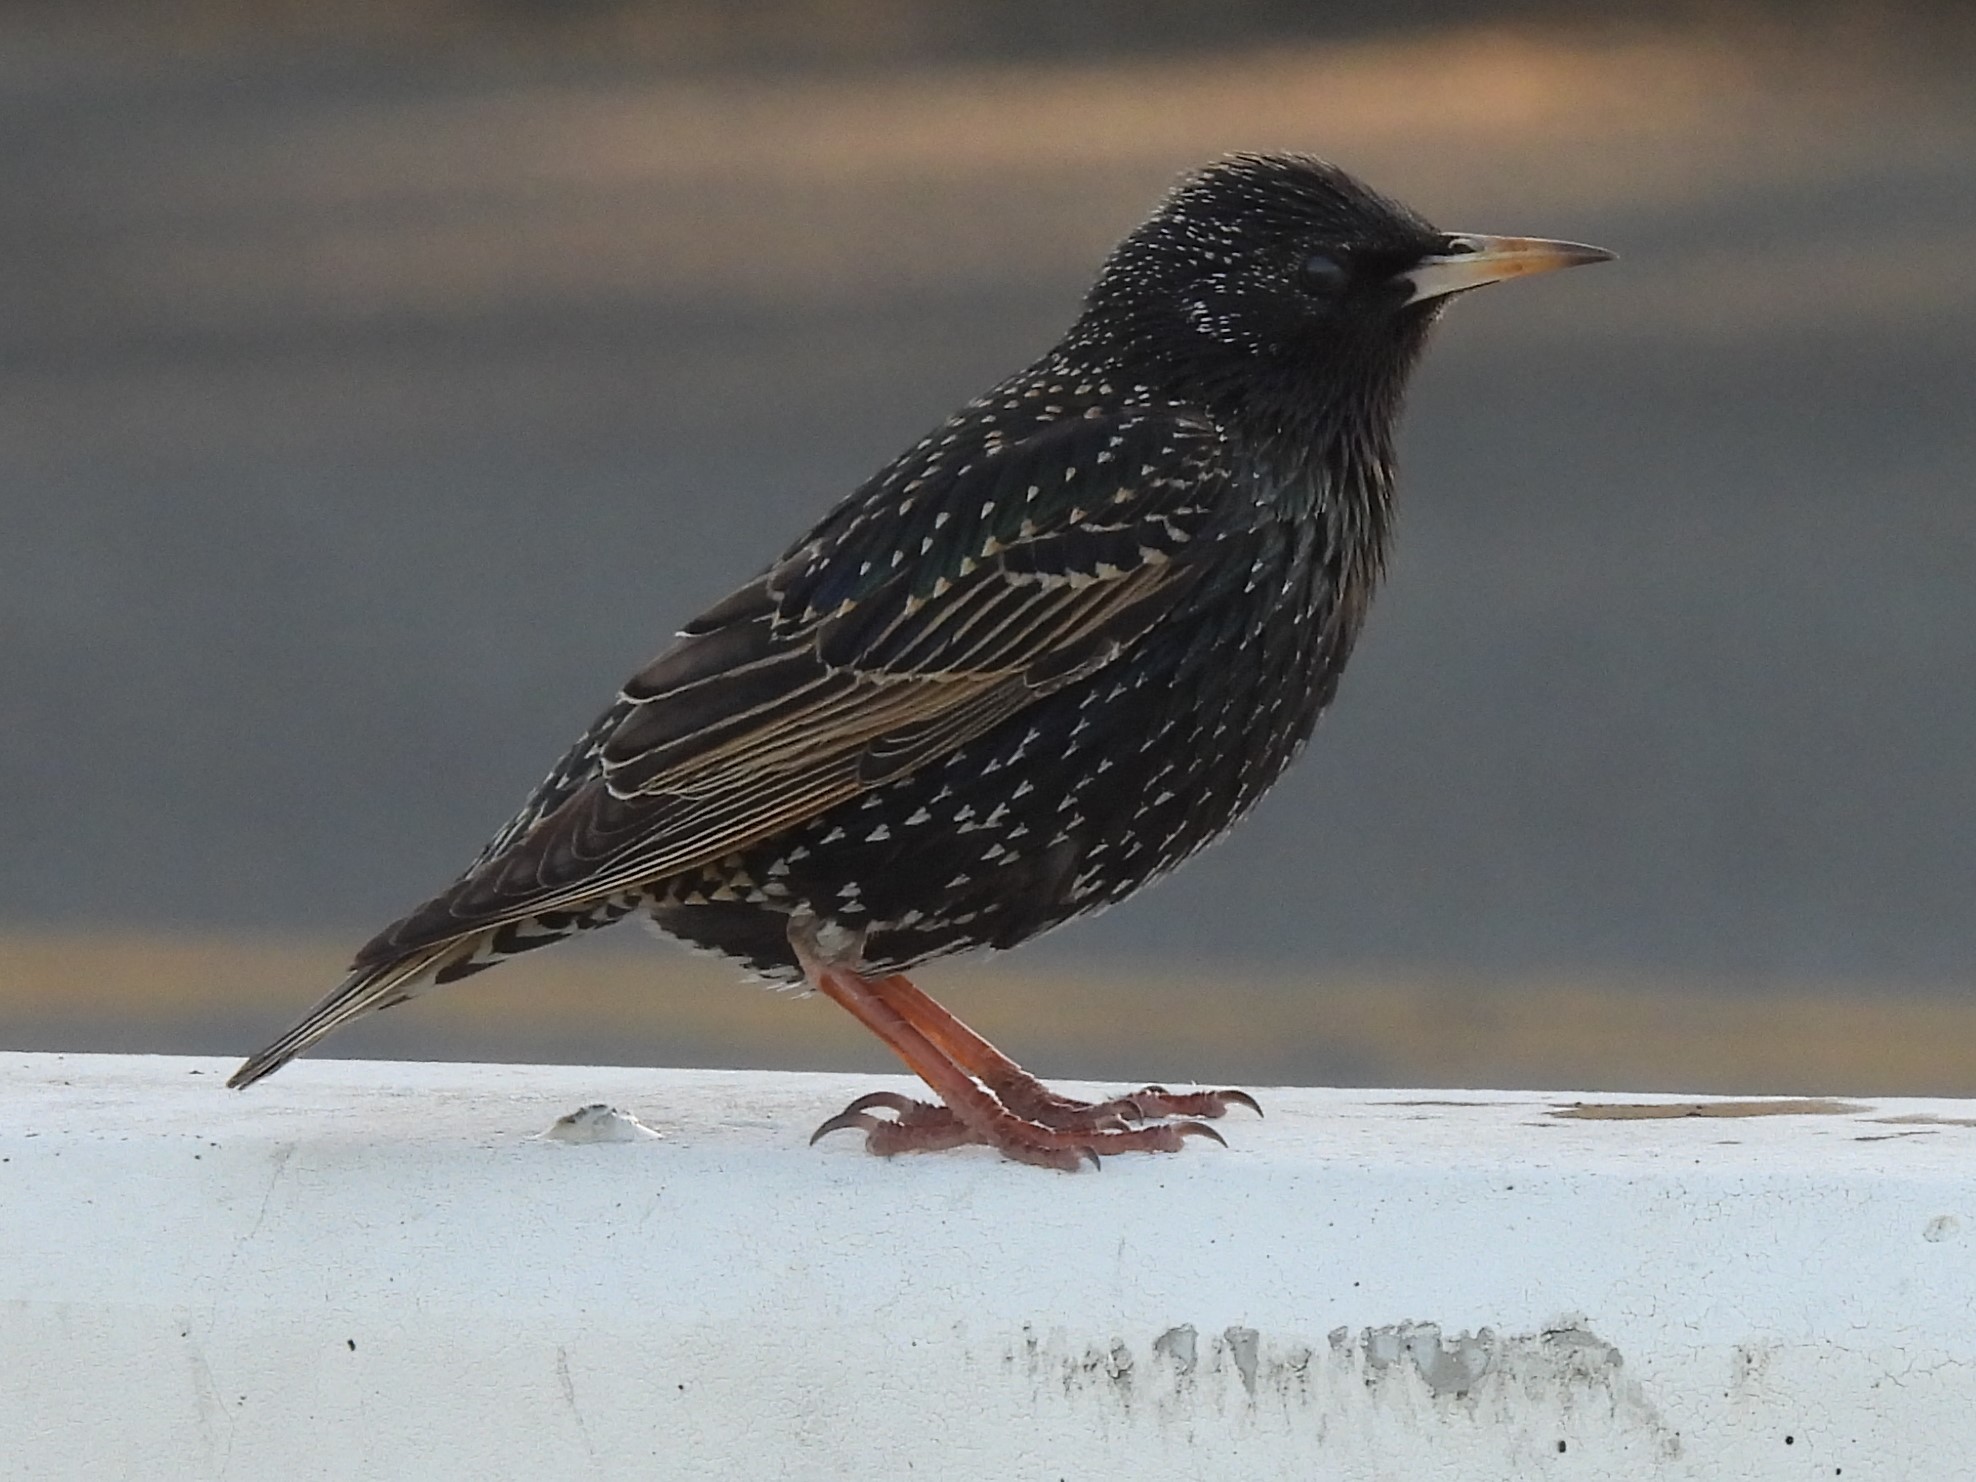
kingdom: Animalia
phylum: Chordata
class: Aves
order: Passeriformes
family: Sturnidae
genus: Sturnus
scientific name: Sturnus vulgaris
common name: Common starling
